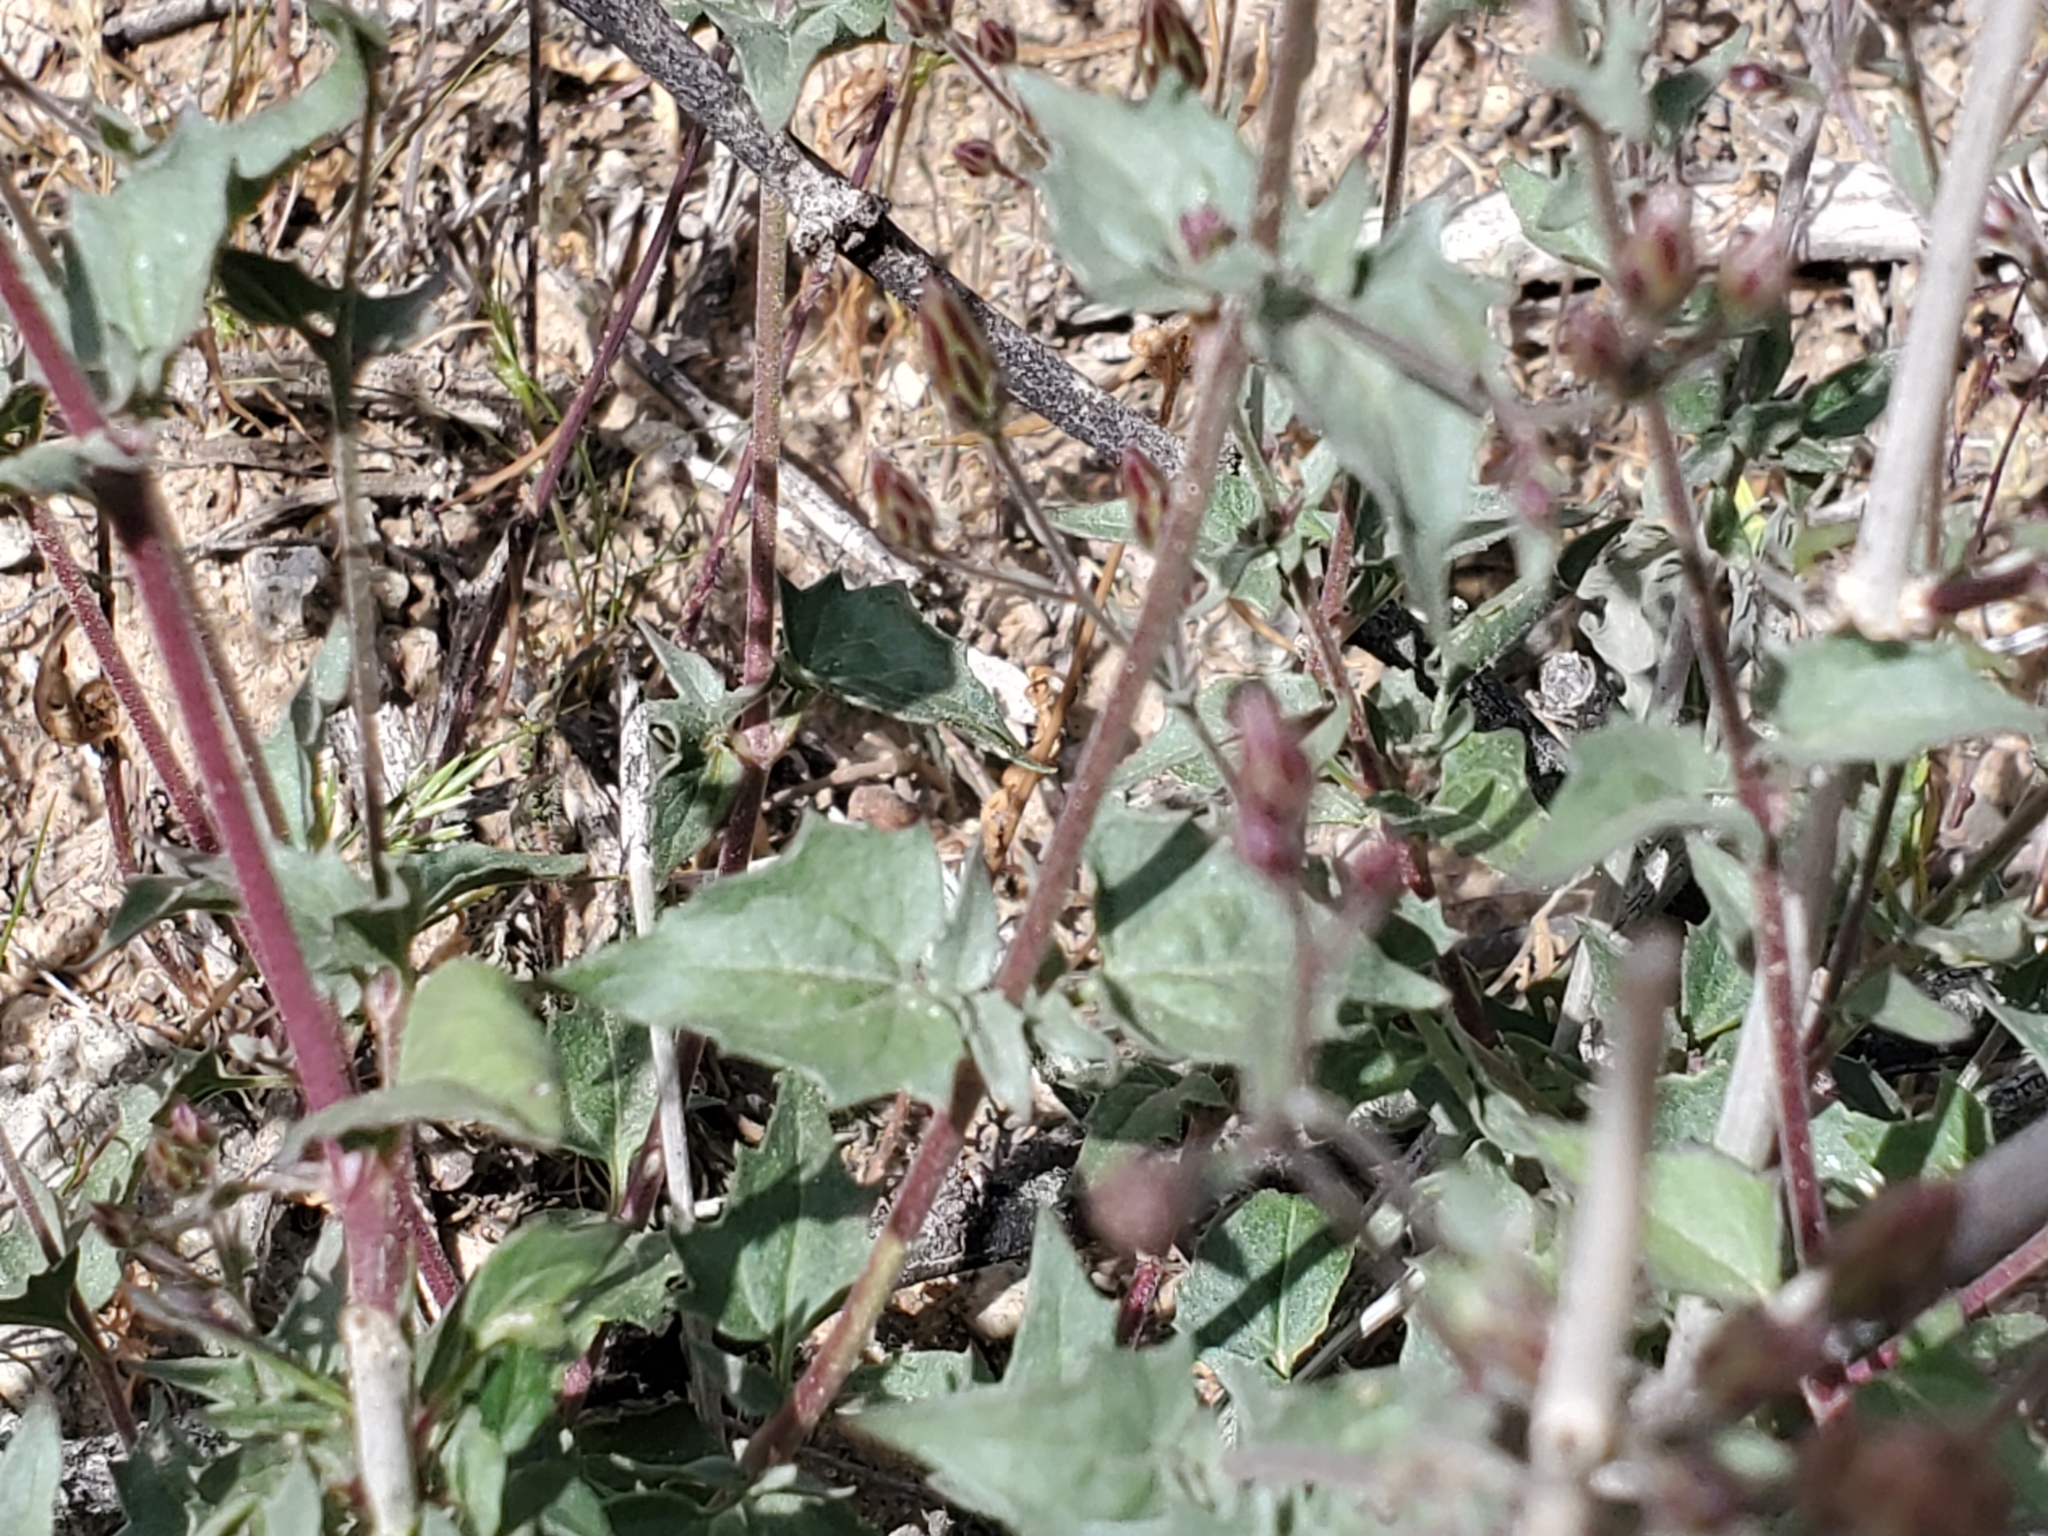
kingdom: Plantae
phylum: Tracheophyta
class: Magnoliopsida
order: Asterales
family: Asteraceae
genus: Brickellia
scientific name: Brickellia coulteri
